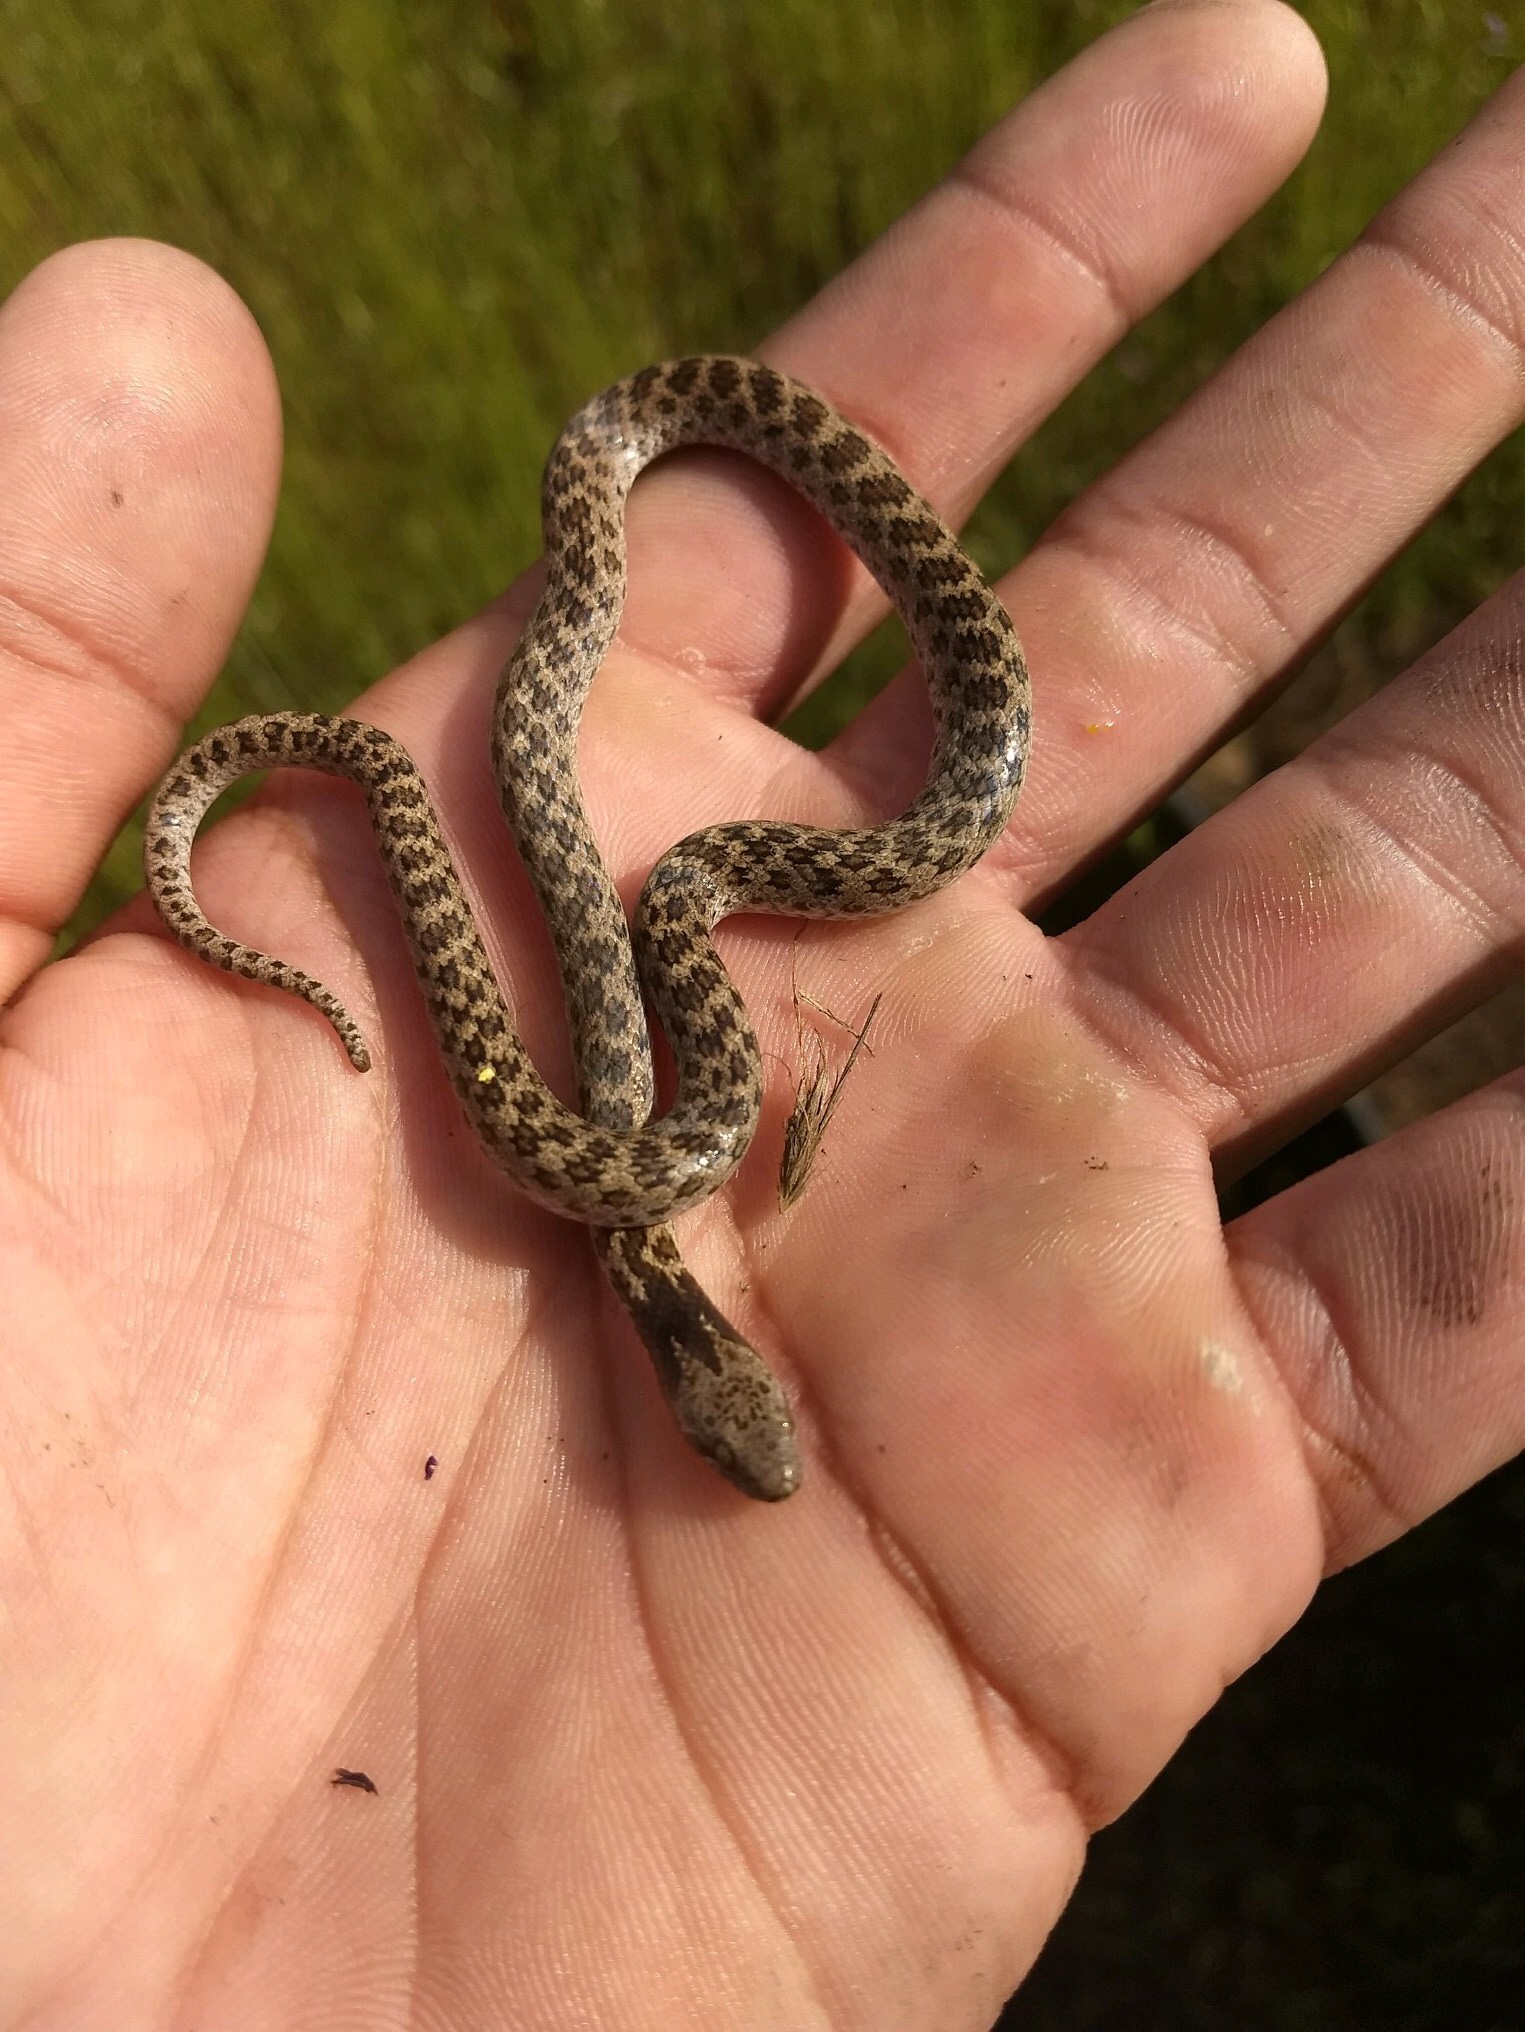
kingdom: Animalia
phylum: Chordata
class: Squamata
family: Colubridae
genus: Hypsiglena
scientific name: Hypsiglena ochrorhynchus
